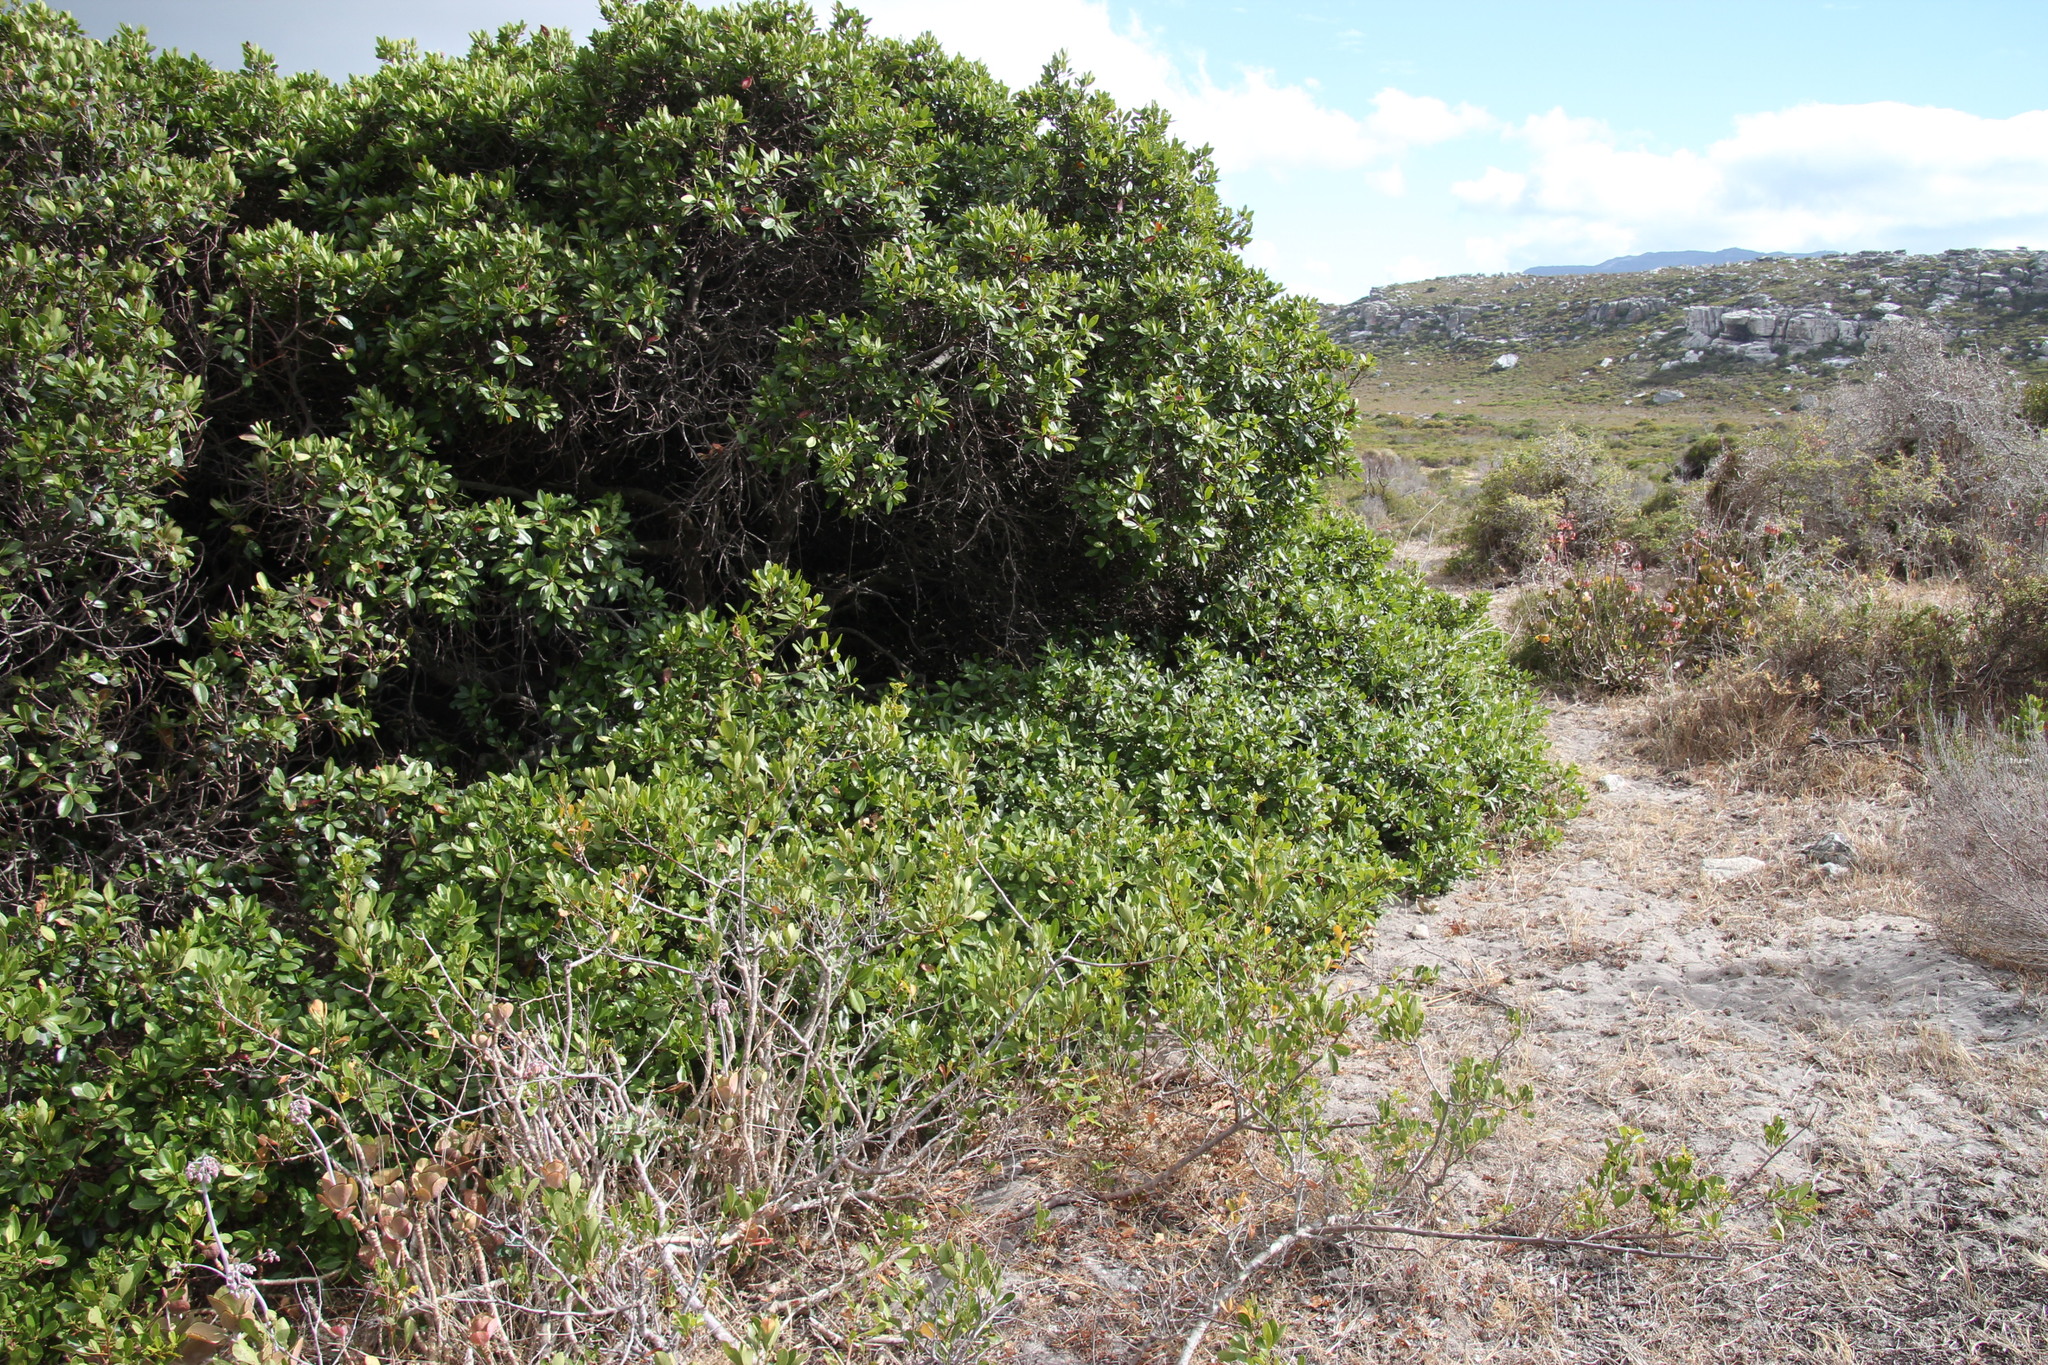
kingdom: Plantae
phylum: Tracheophyta
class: Magnoliopsida
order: Ericales
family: Sapotaceae
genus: Sideroxylon
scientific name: Sideroxylon inerme
